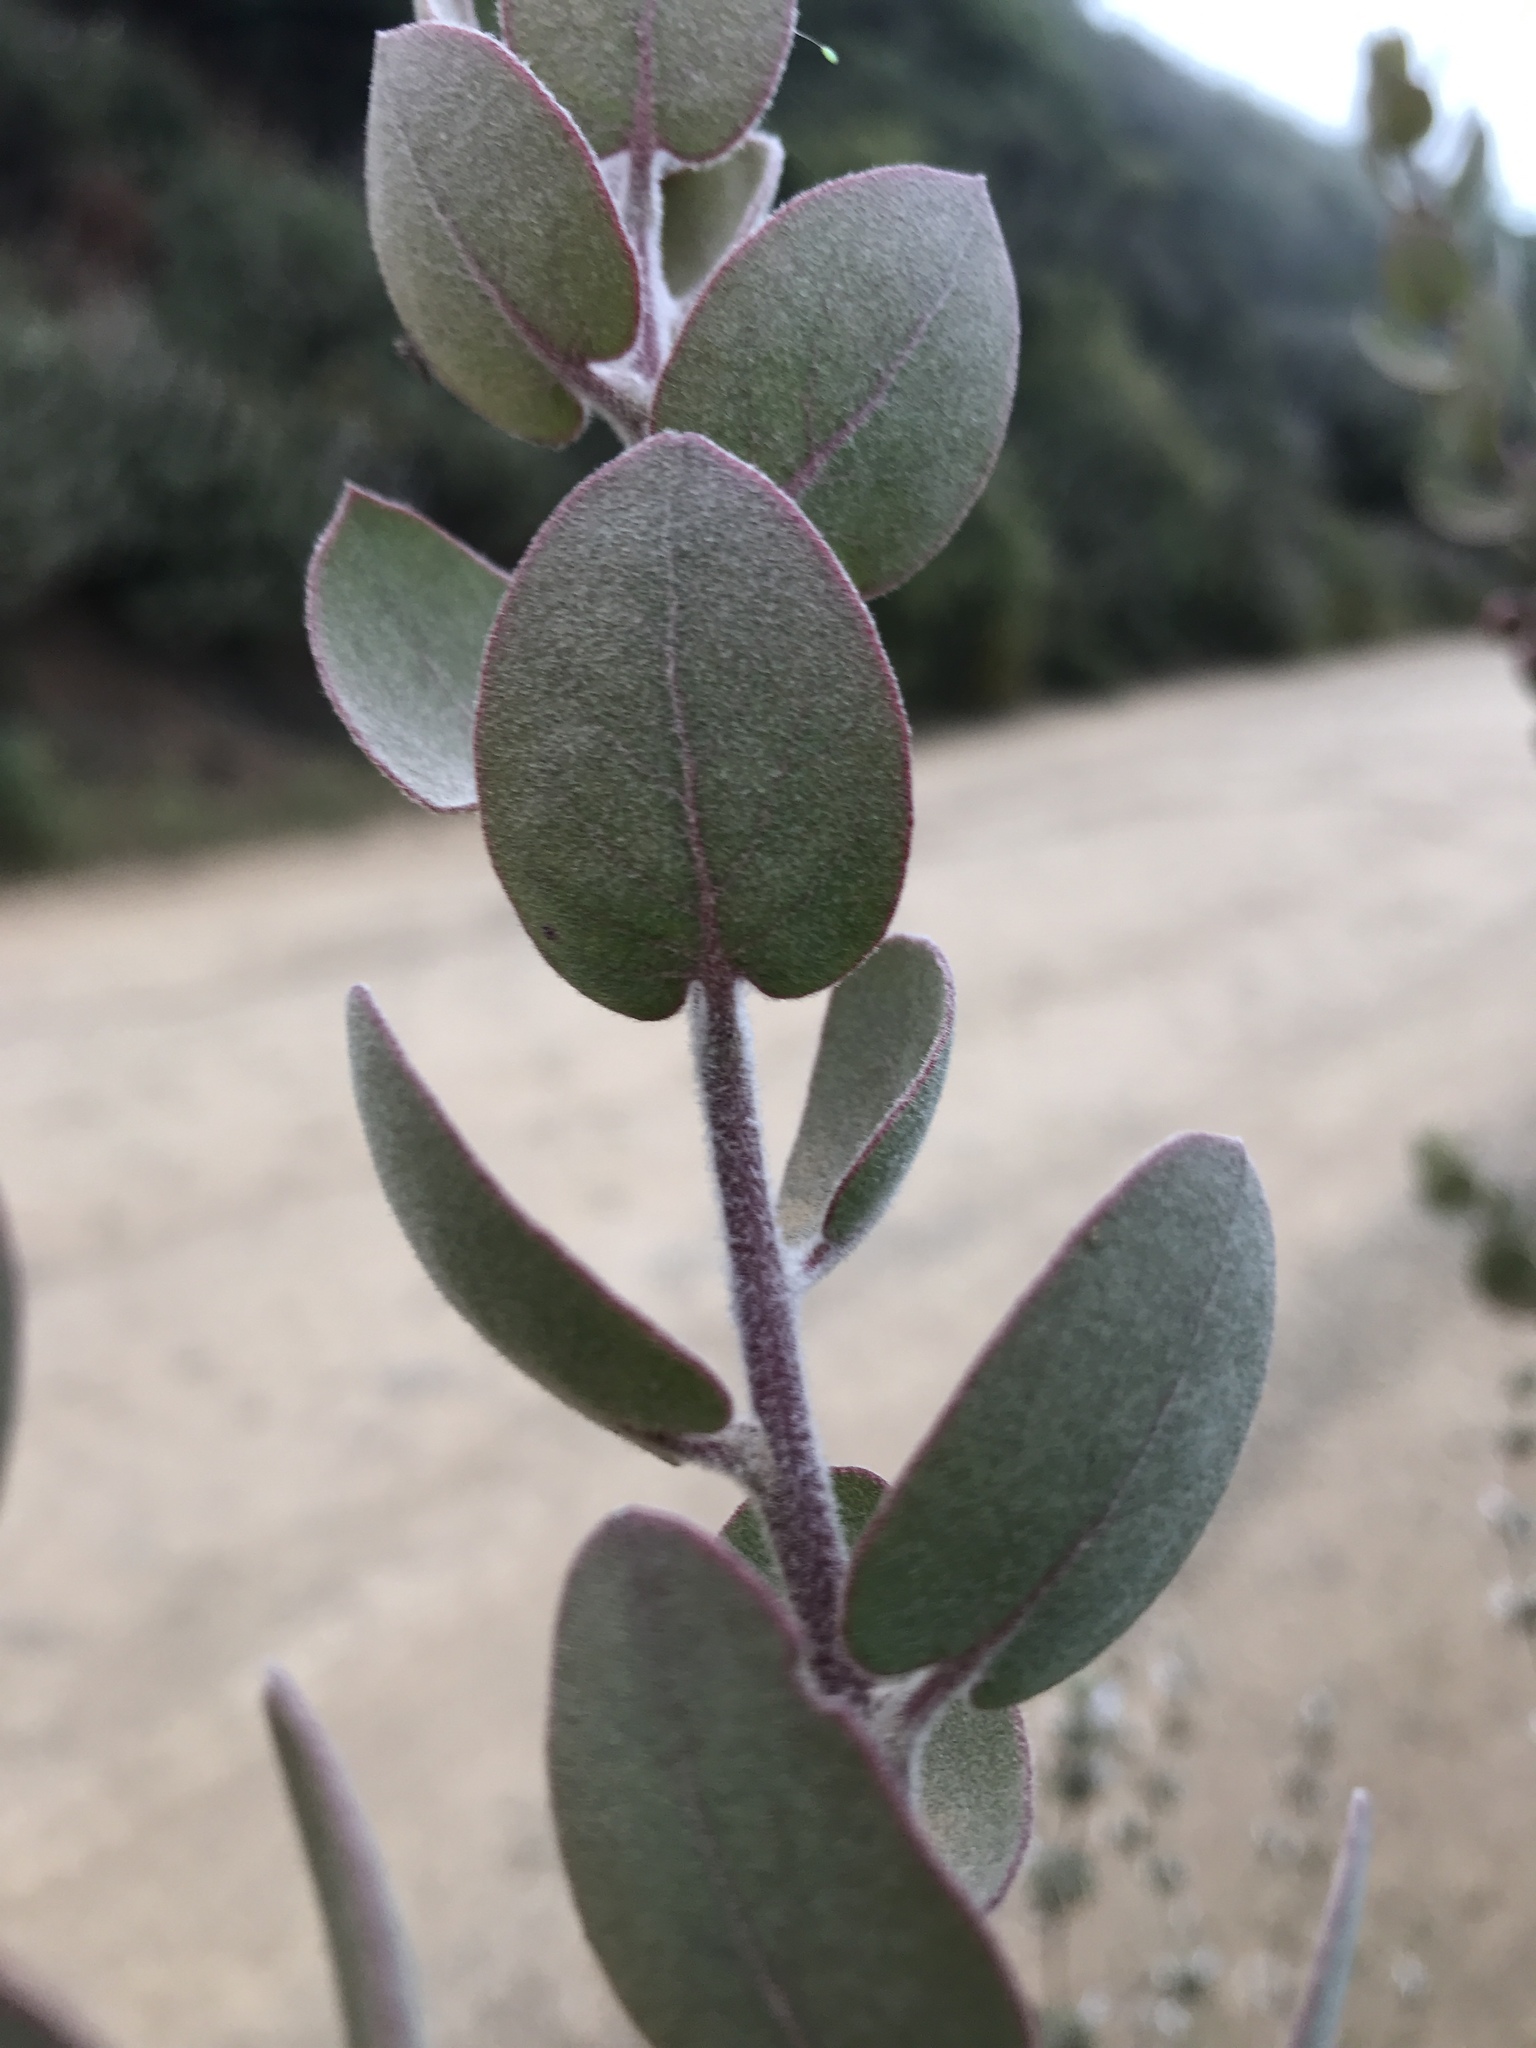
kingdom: Plantae
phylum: Tracheophyta
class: Magnoliopsida
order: Ericales
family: Ericaceae
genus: Arctostaphylos
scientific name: Arctostaphylos obispoensis
